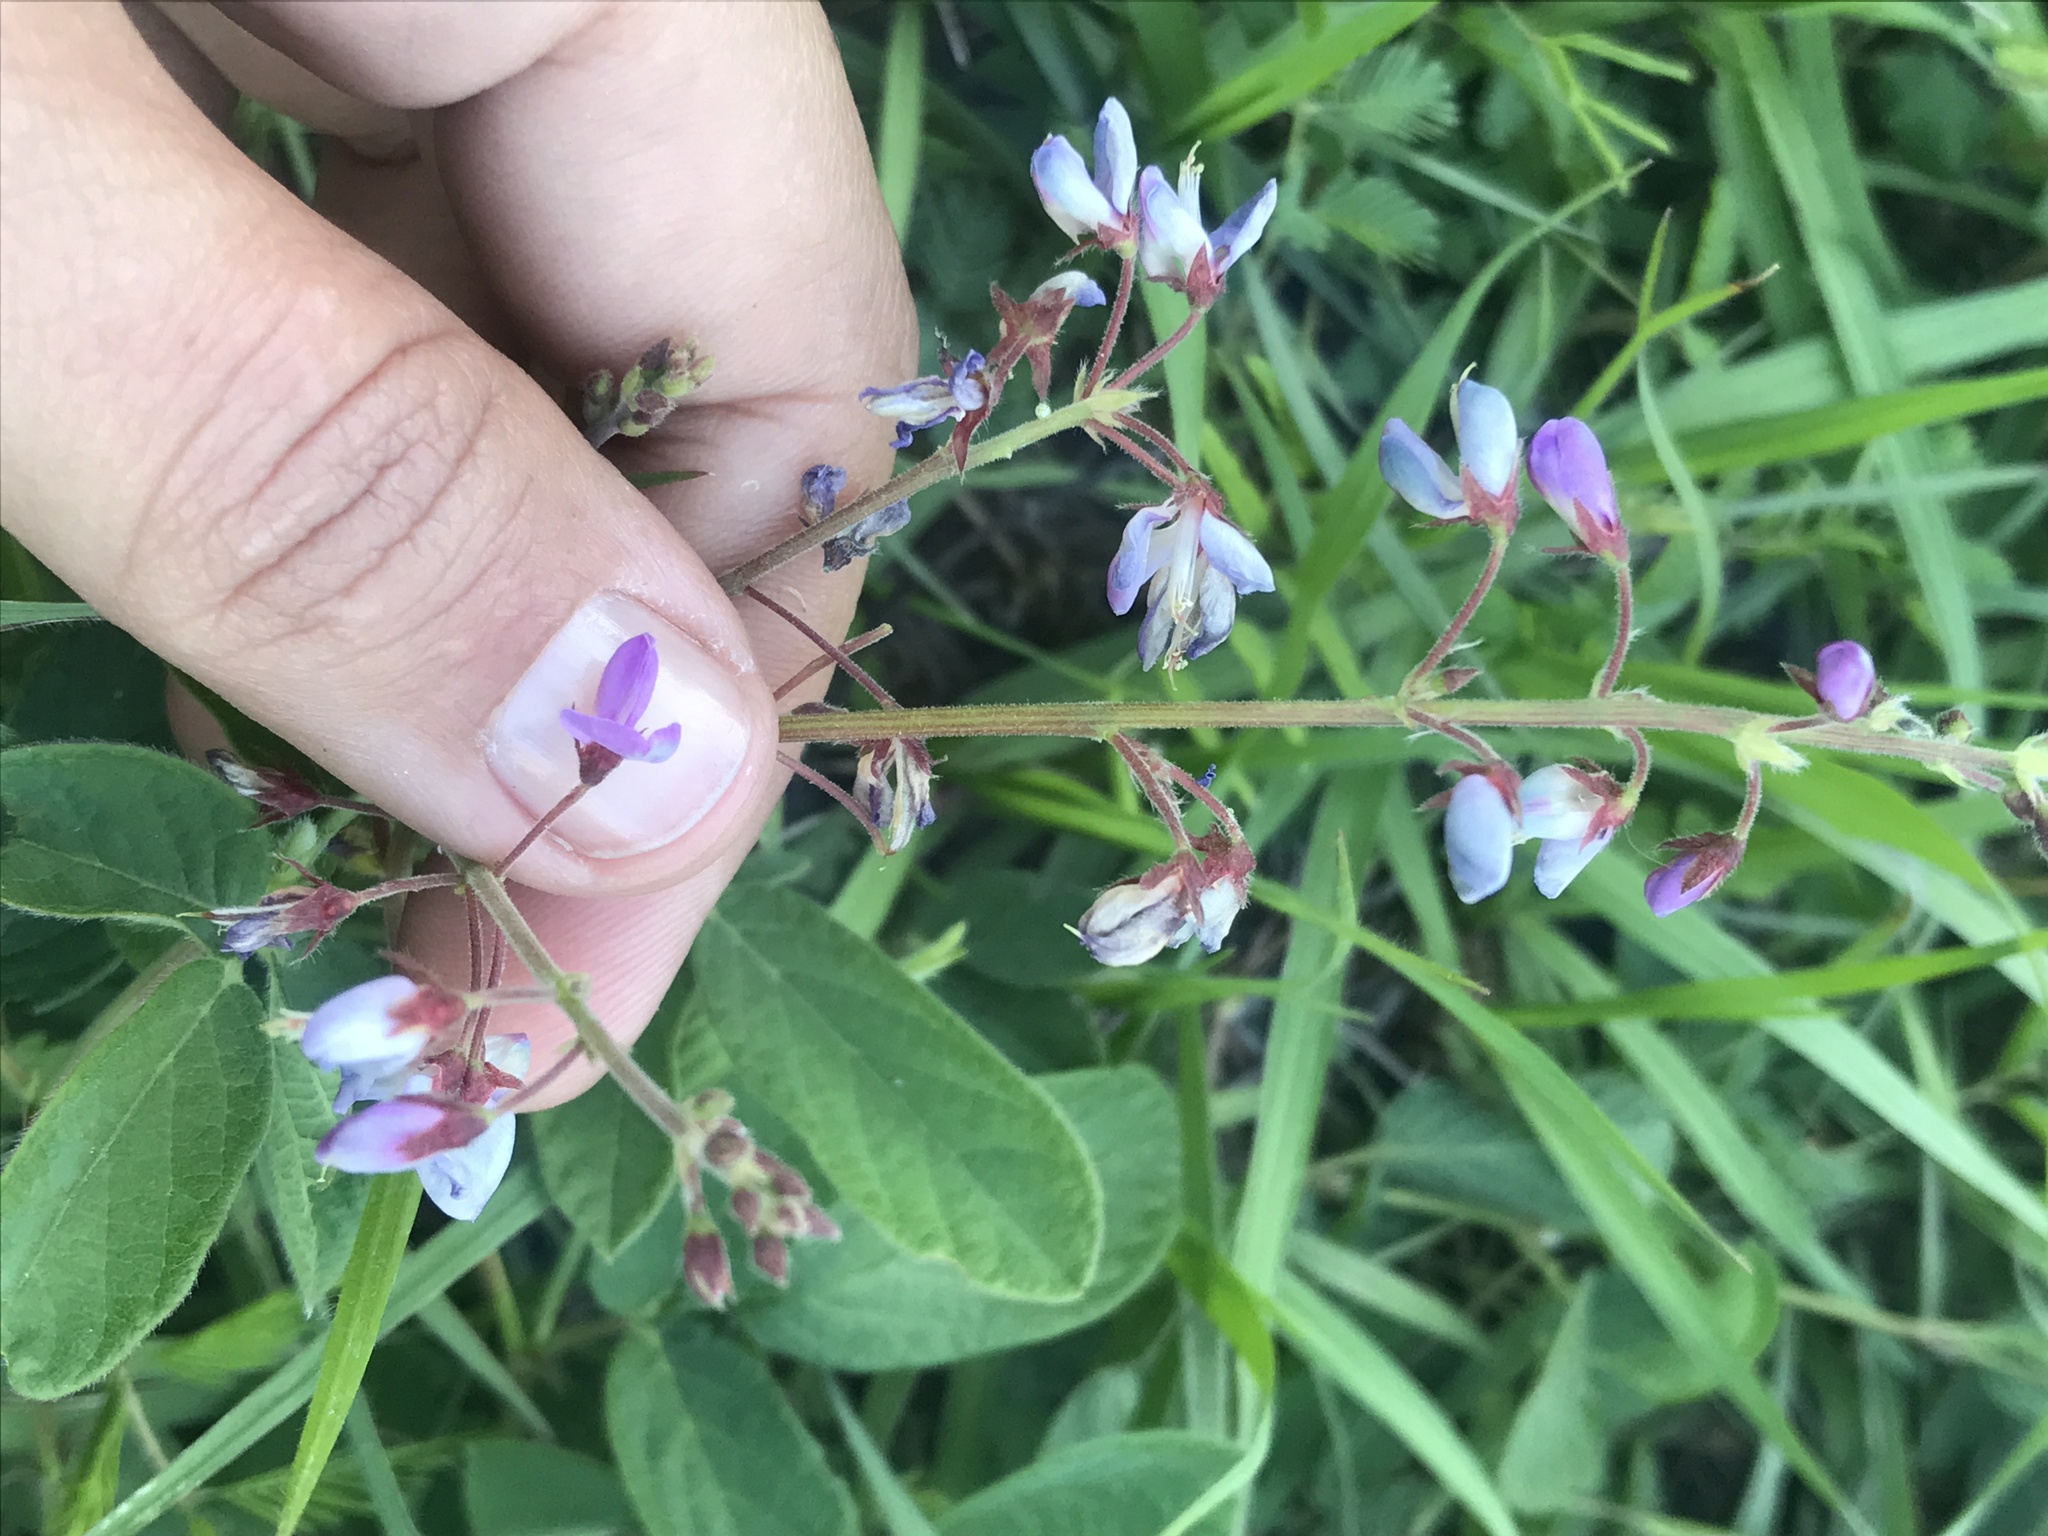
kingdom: Plantae
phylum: Tracheophyta
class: Magnoliopsida
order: Fabales
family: Fabaceae
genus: Desmodium
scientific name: Desmodium incanum
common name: Tickclover
